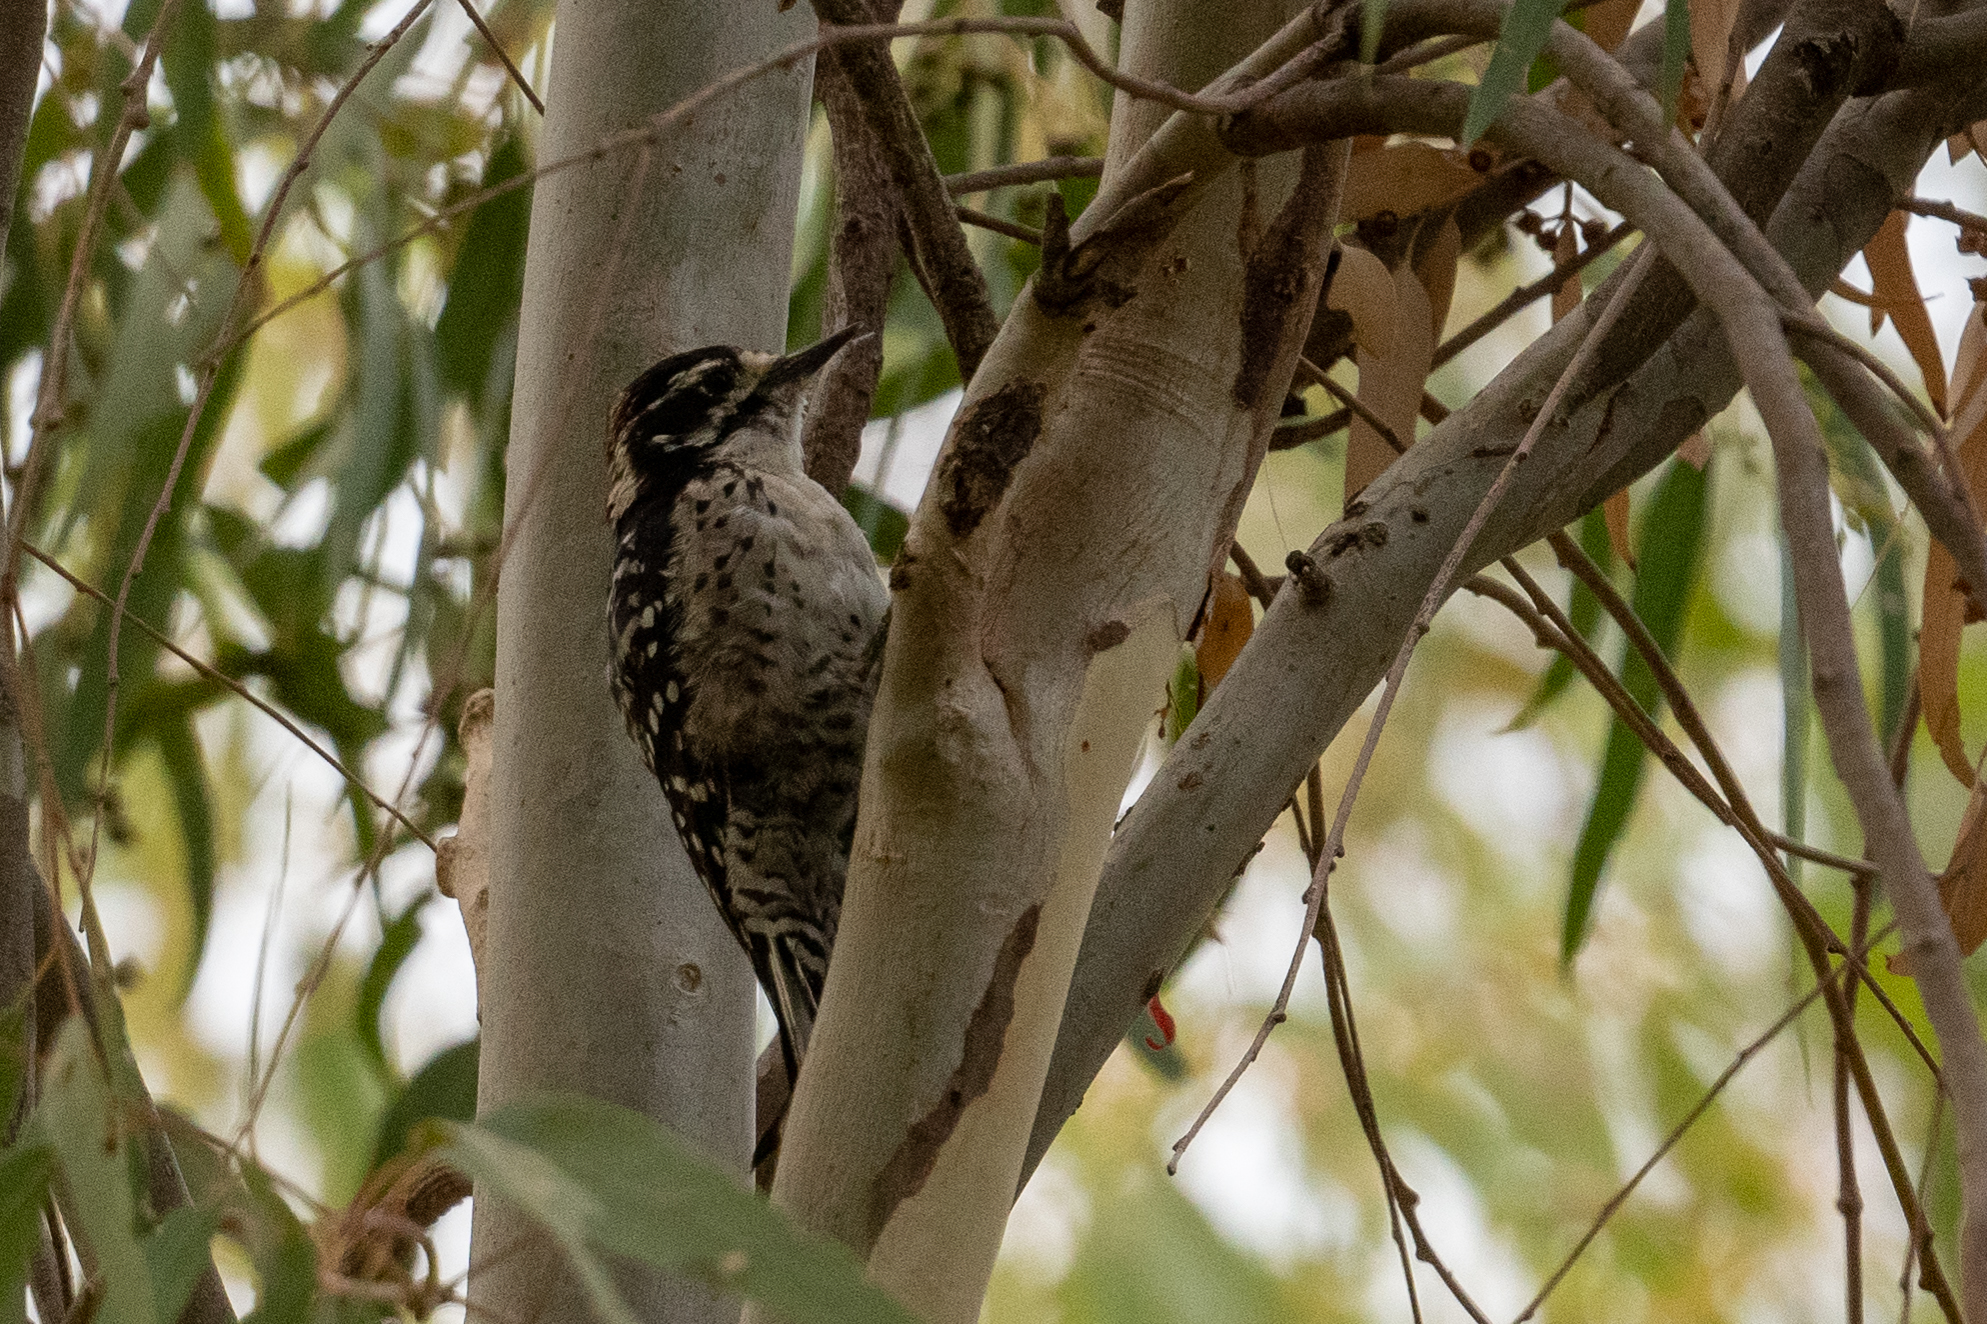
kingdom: Animalia
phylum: Chordata
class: Aves
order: Piciformes
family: Picidae
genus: Dryobates
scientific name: Dryobates nuttallii
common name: Nuttall's woodpecker
